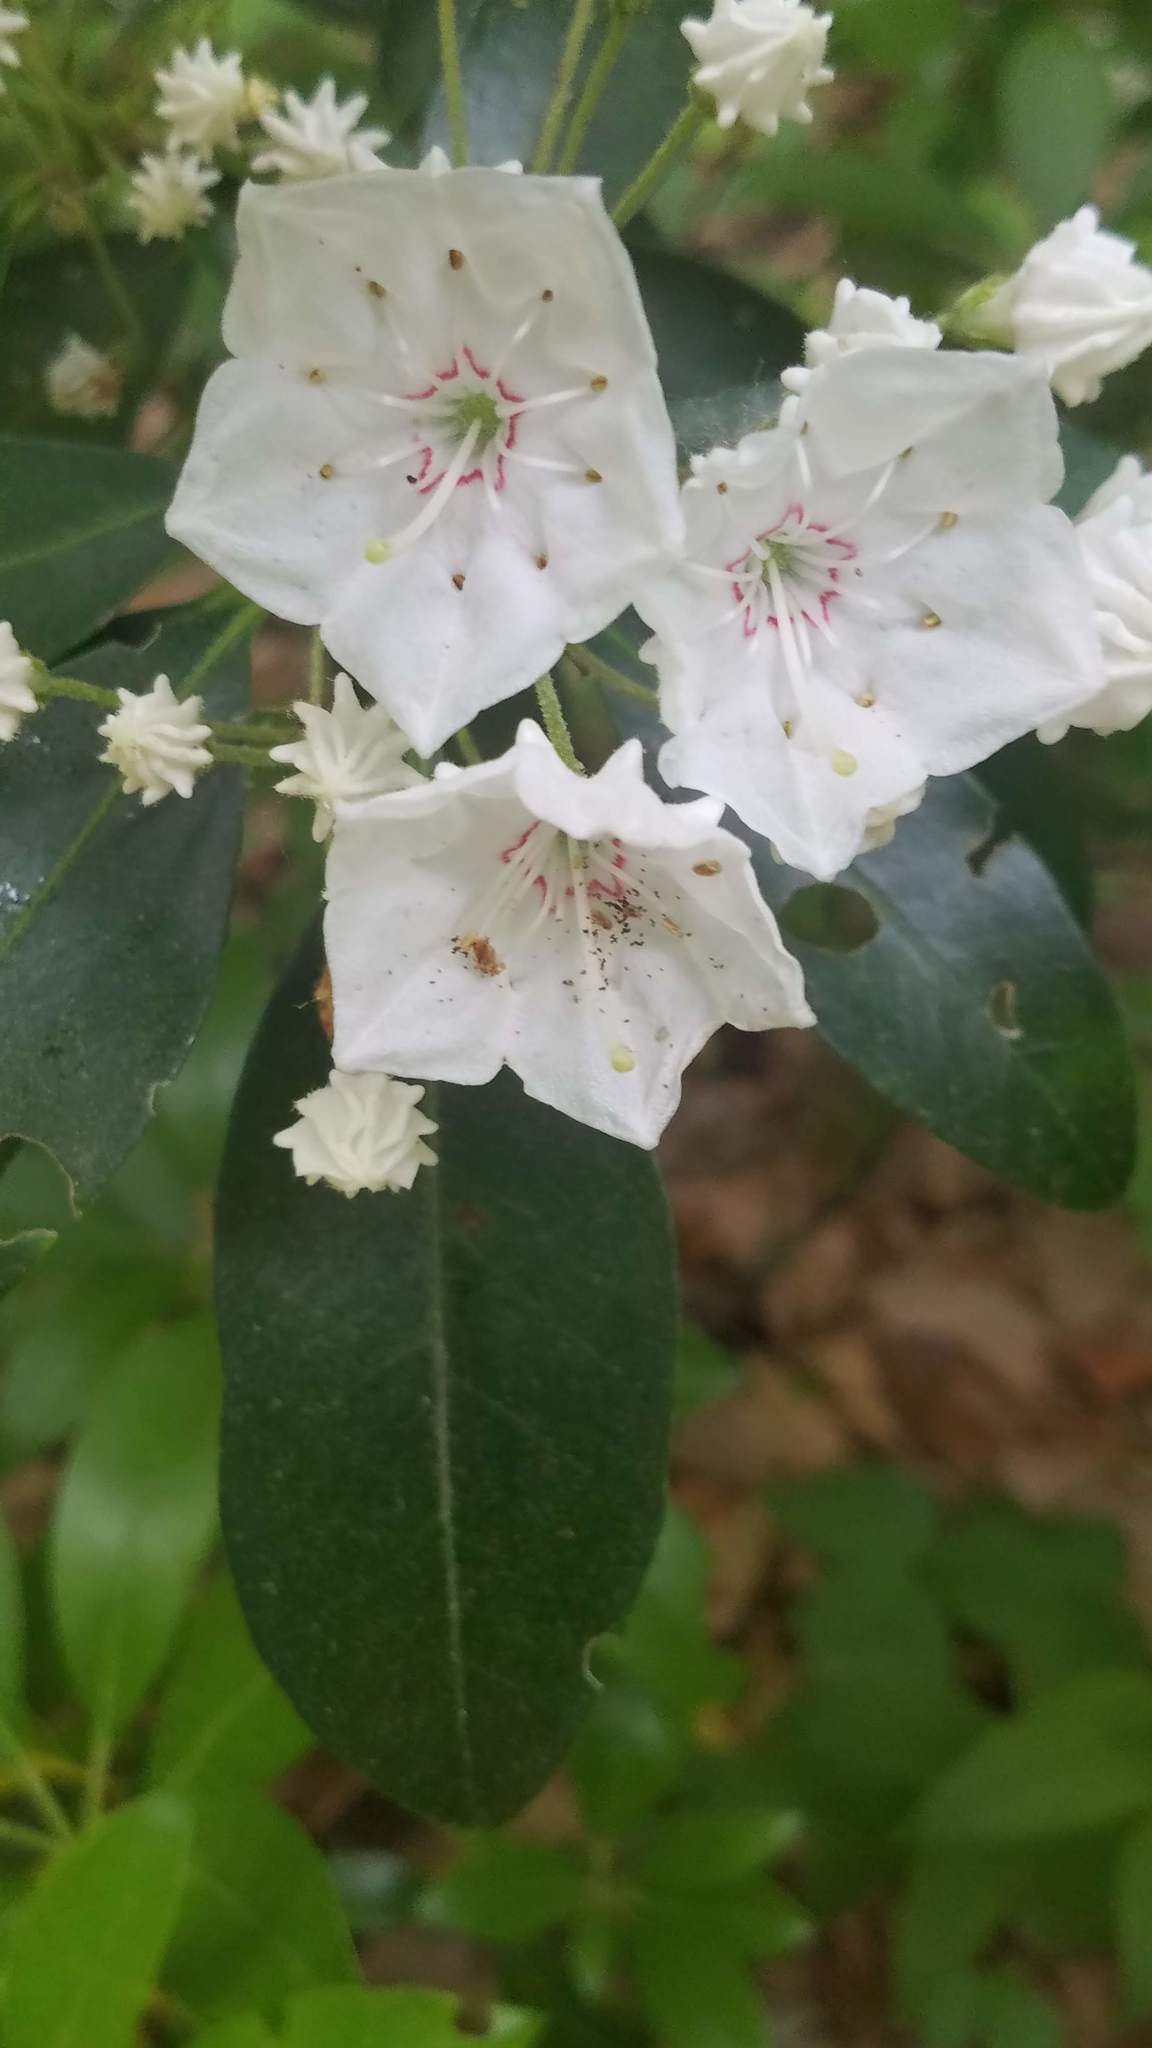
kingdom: Plantae
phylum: Tracheophyta
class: Magnoliopsida
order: Ericales
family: Ericaceae
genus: Kalmia
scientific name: Kalmia latifolia
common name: Mountain-laurel
